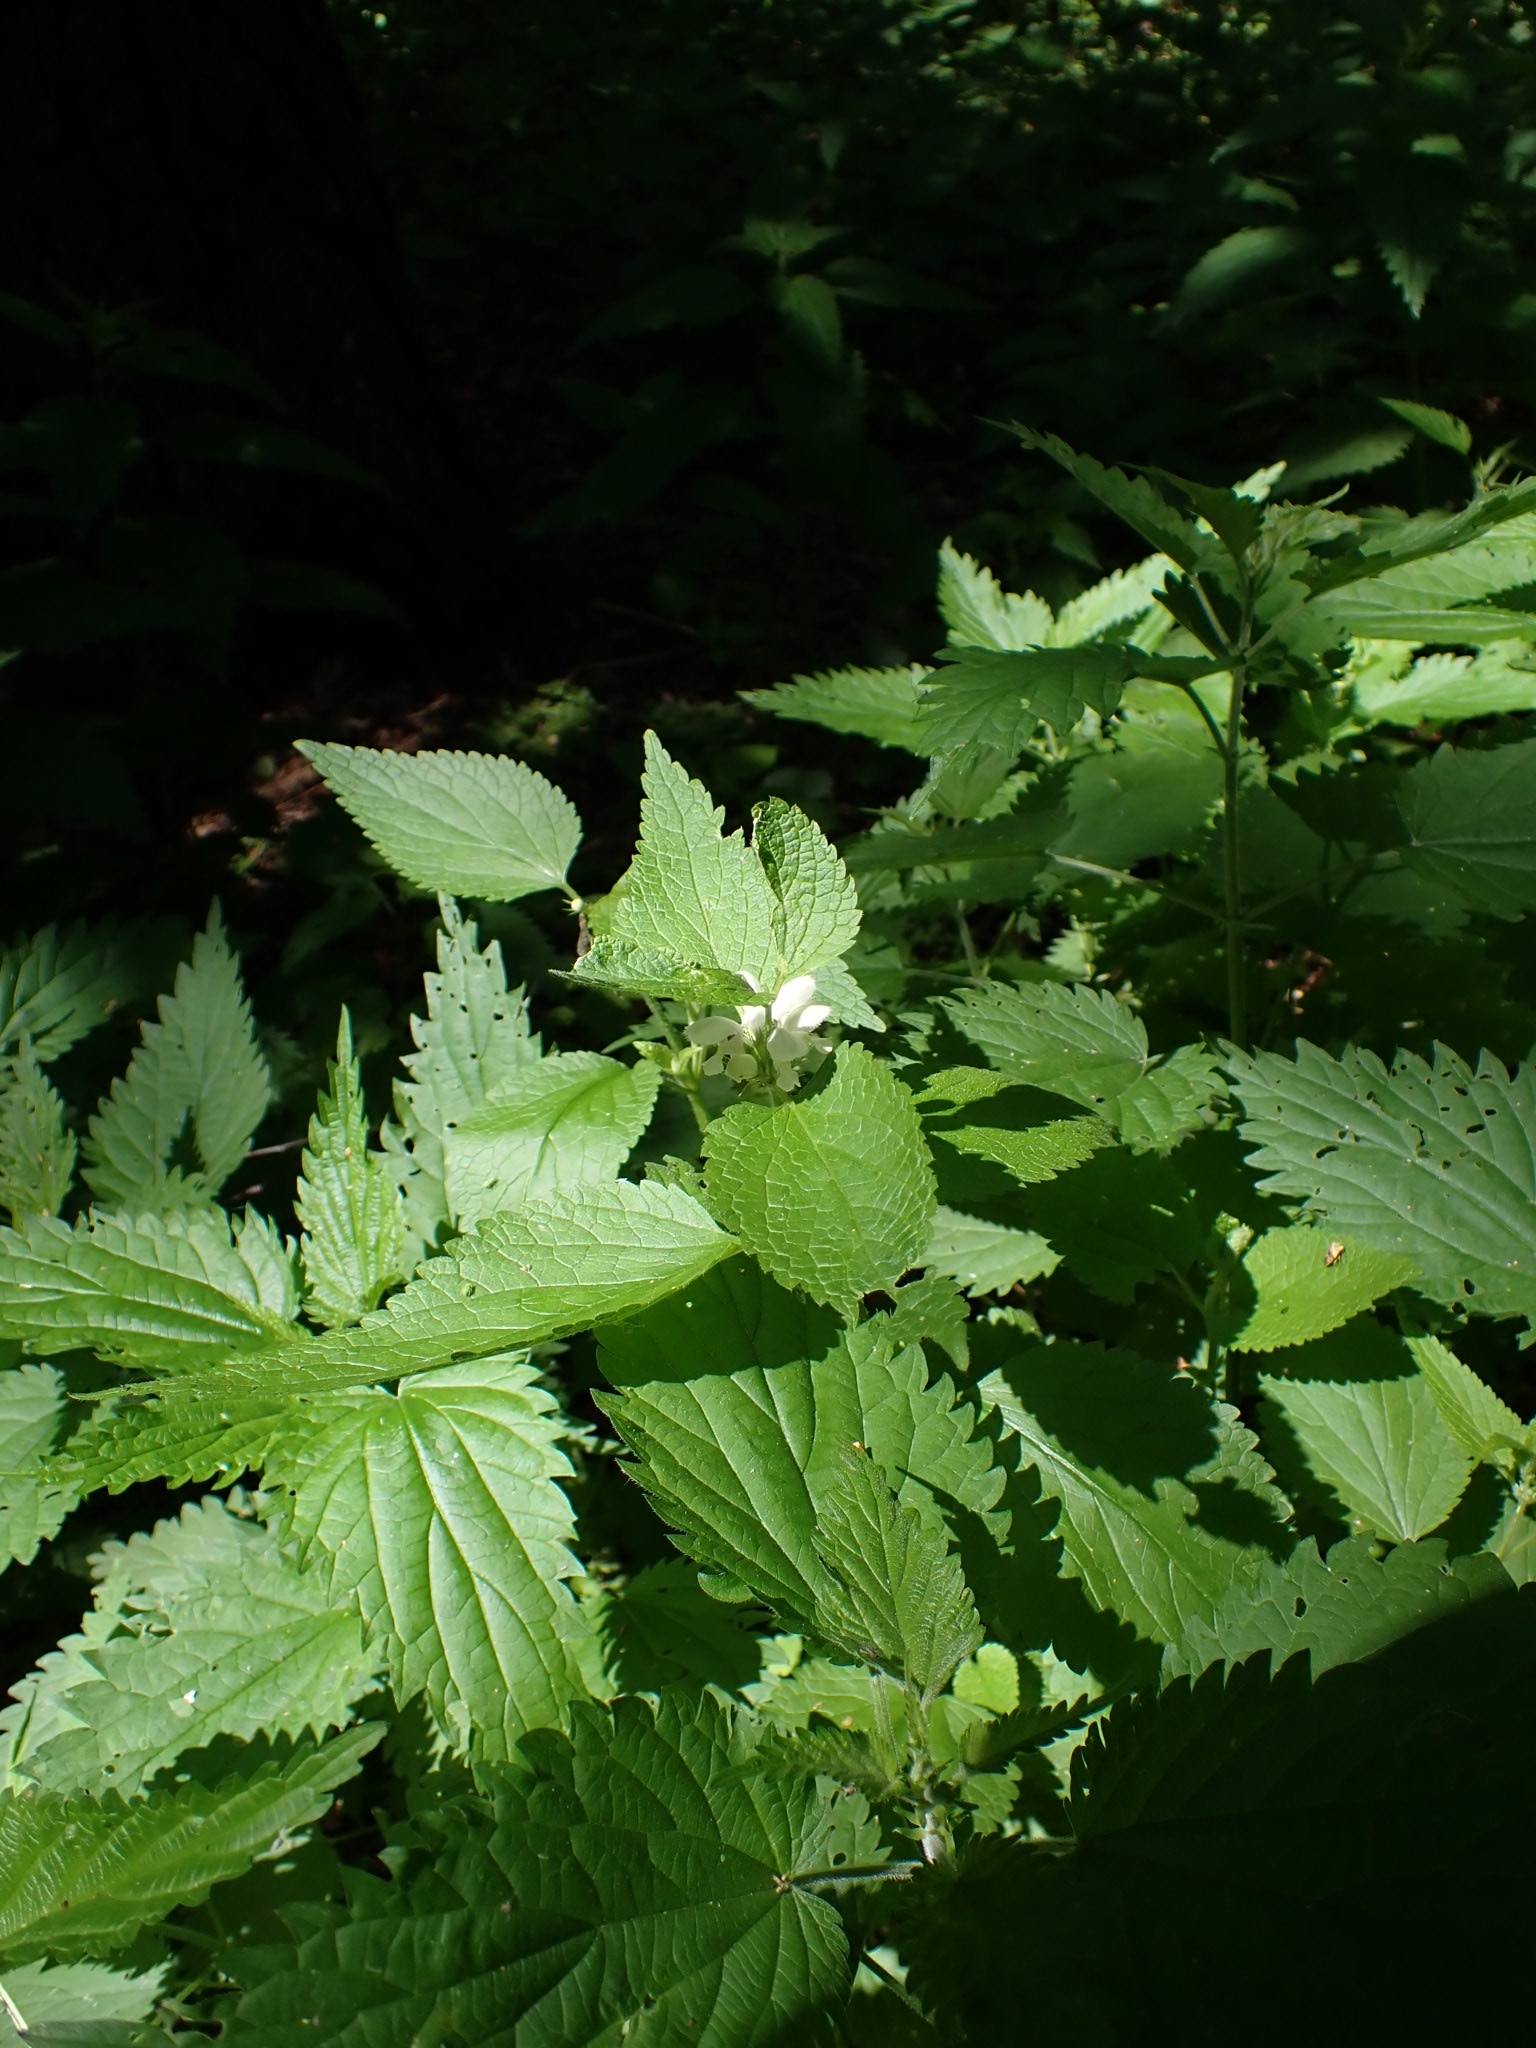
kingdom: Plantae
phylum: Tracheophyta
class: Magnoliopsida
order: Rosales
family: Urticaceae
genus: Urtica
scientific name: Urtica dioica
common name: Common nettle
